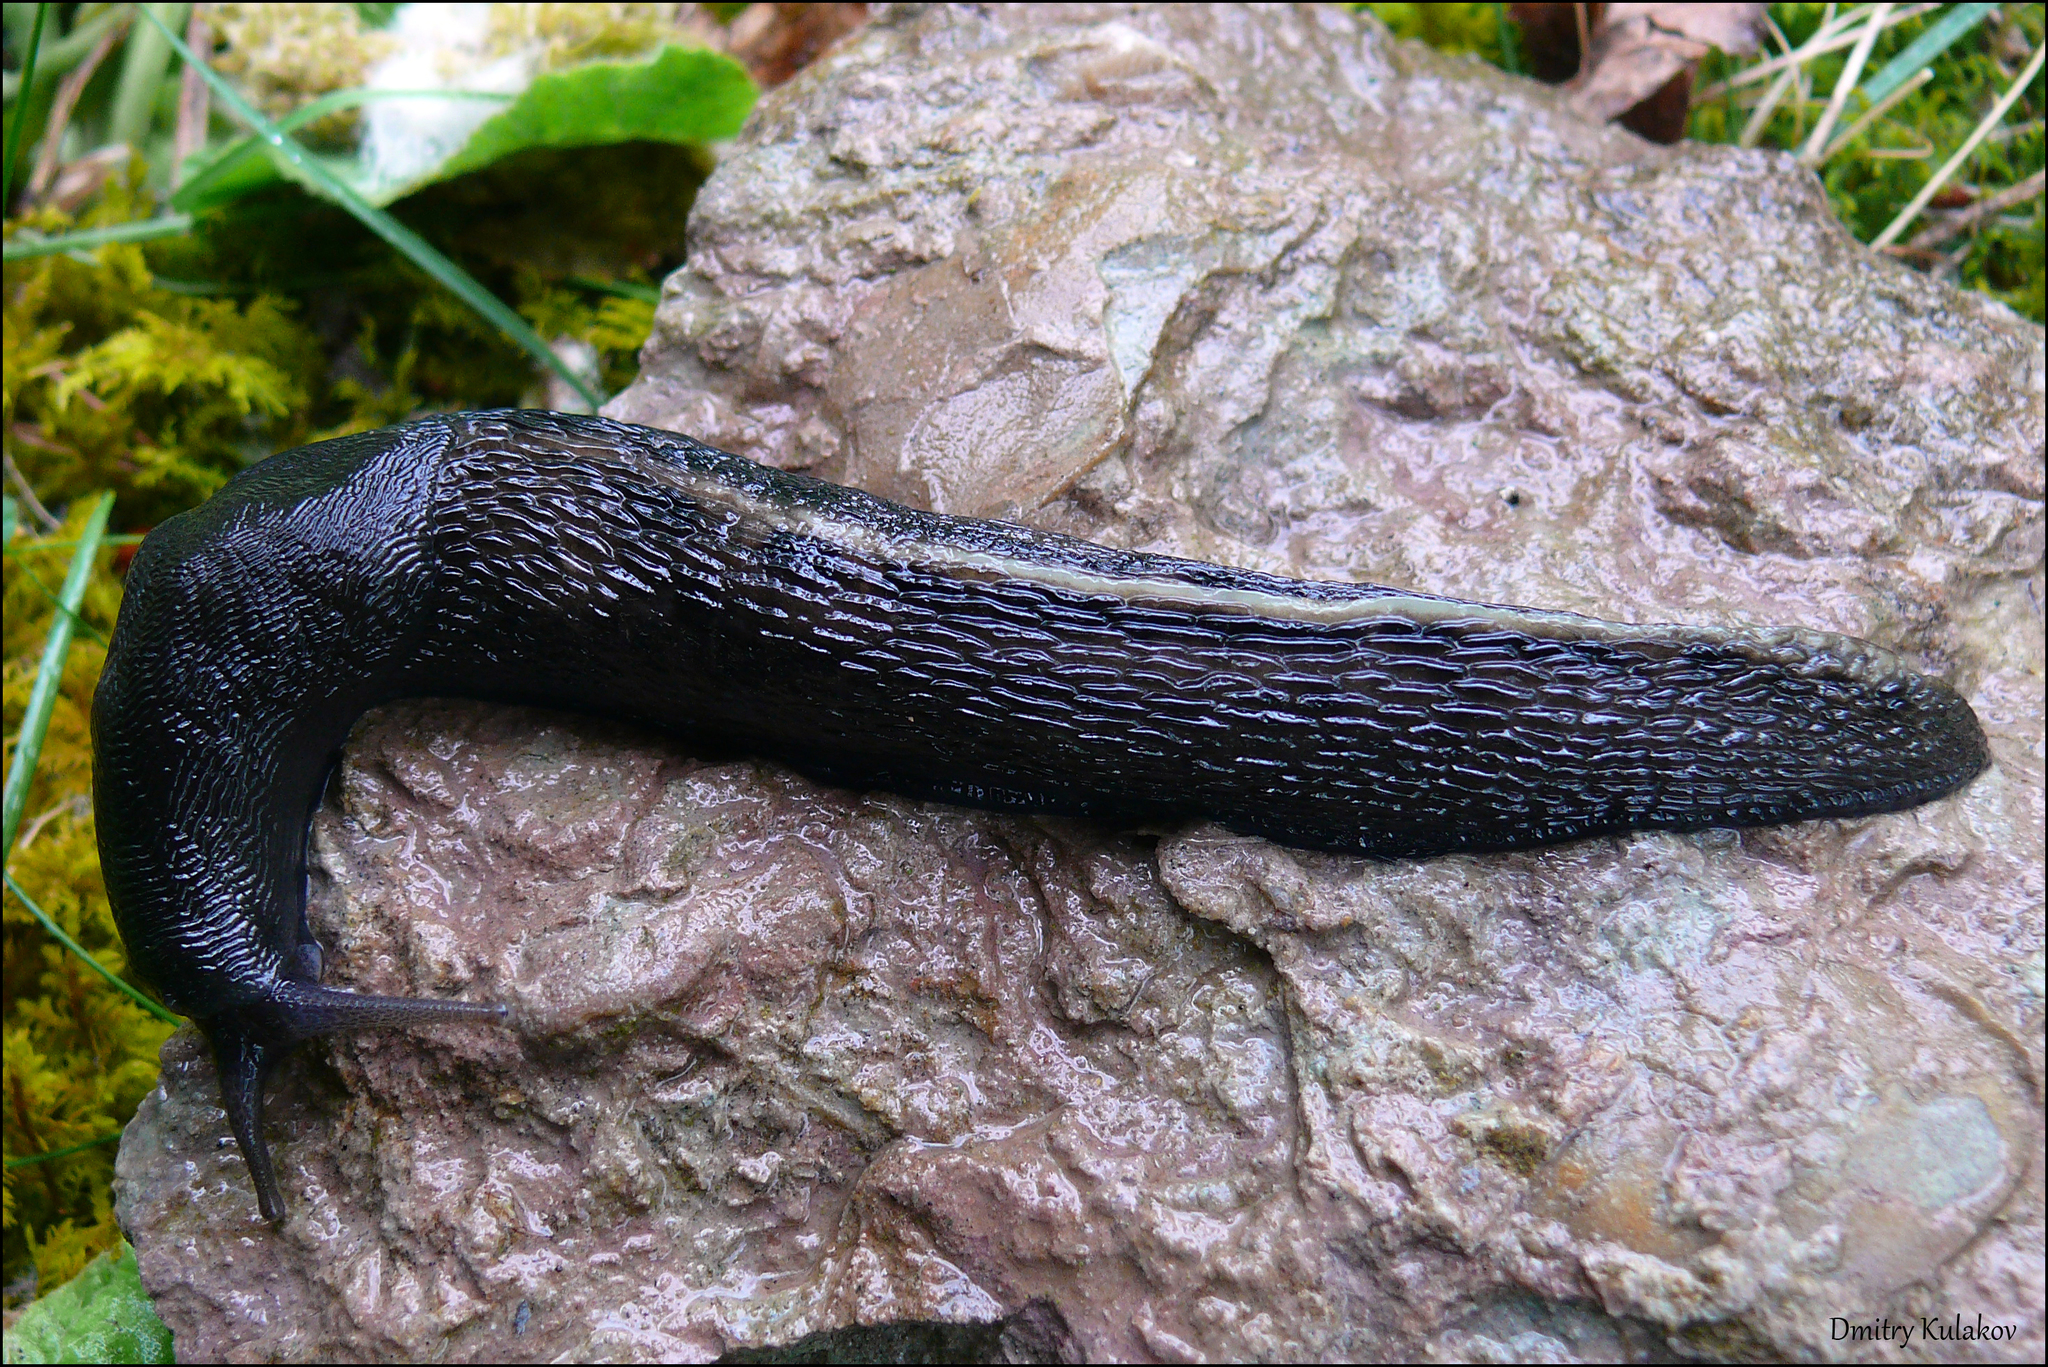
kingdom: Animalia
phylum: Mollusca
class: Gastropoda
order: Stylommatophora
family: Limacidae
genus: Limax
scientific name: Limax cinereoniger
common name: Ash-black slug
